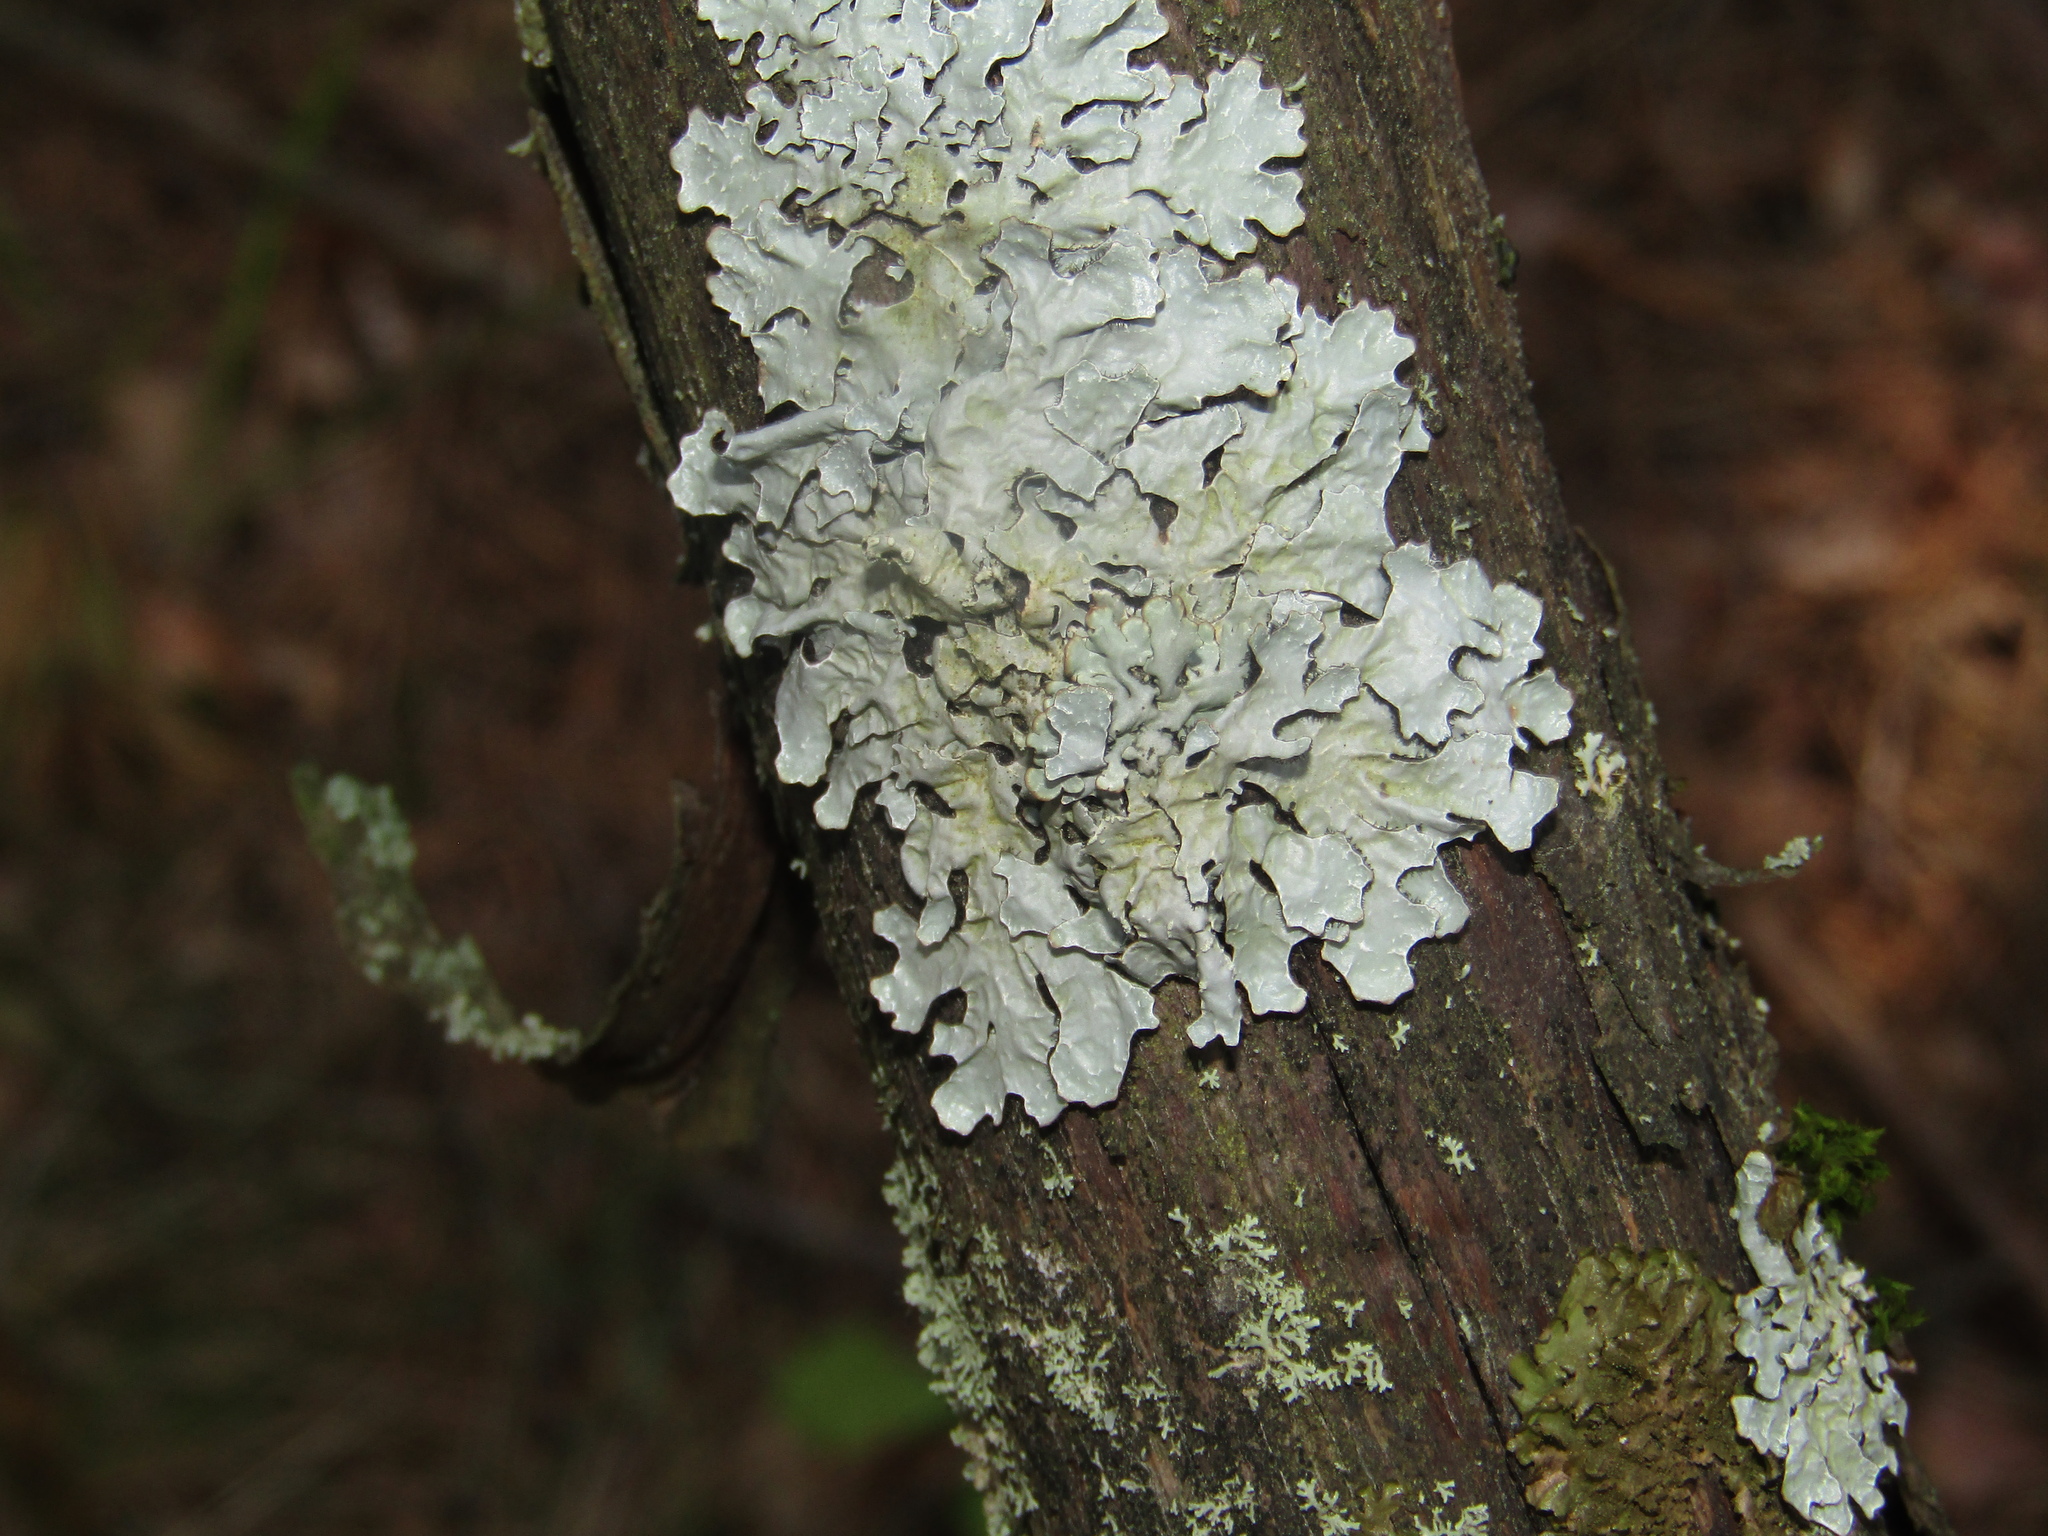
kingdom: Fungi
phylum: Ascomycota
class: Lecanoromycetes
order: Lecanorales
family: Parmeliaceae
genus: Parmelia
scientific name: Parmelia sulcata
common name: Netted shield lichen
